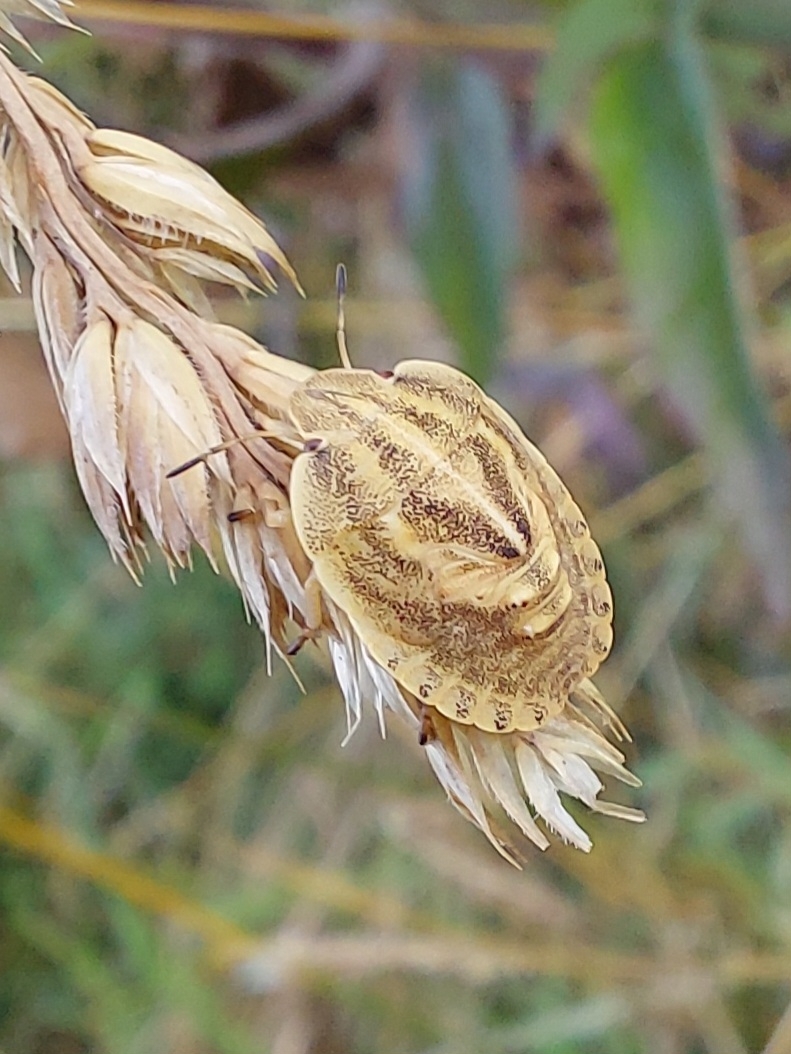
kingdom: Animalia
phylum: Arthropoda
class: Insecta
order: Hemiptera
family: Scutelleridae
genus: Eurygaster
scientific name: Eurygaster maura
